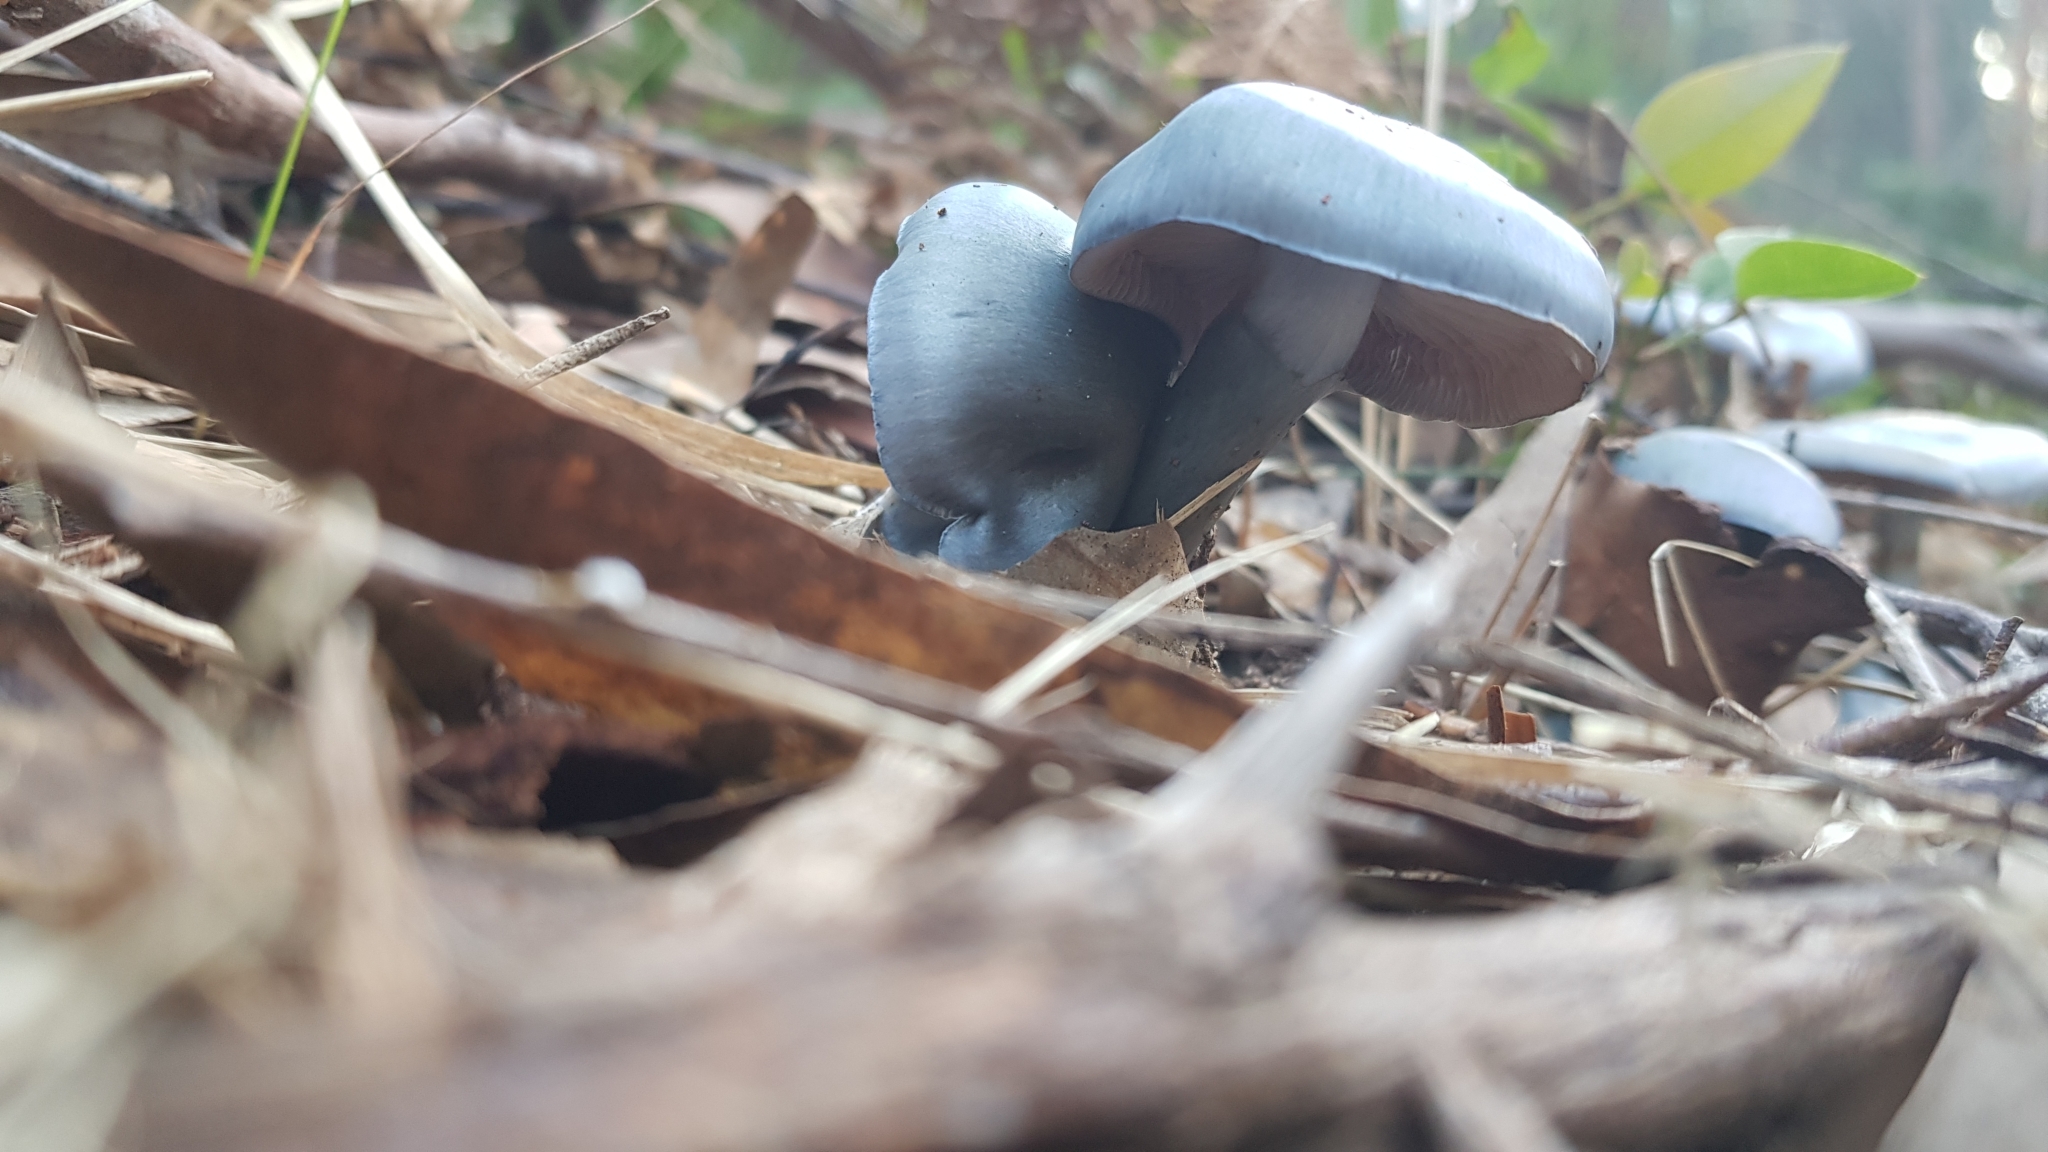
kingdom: Fungi
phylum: Basidiomycota
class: Agaricomycetes
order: Agaricales
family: Cortinariaceae
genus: Cortinarius
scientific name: Cortinarius rotundisporus
